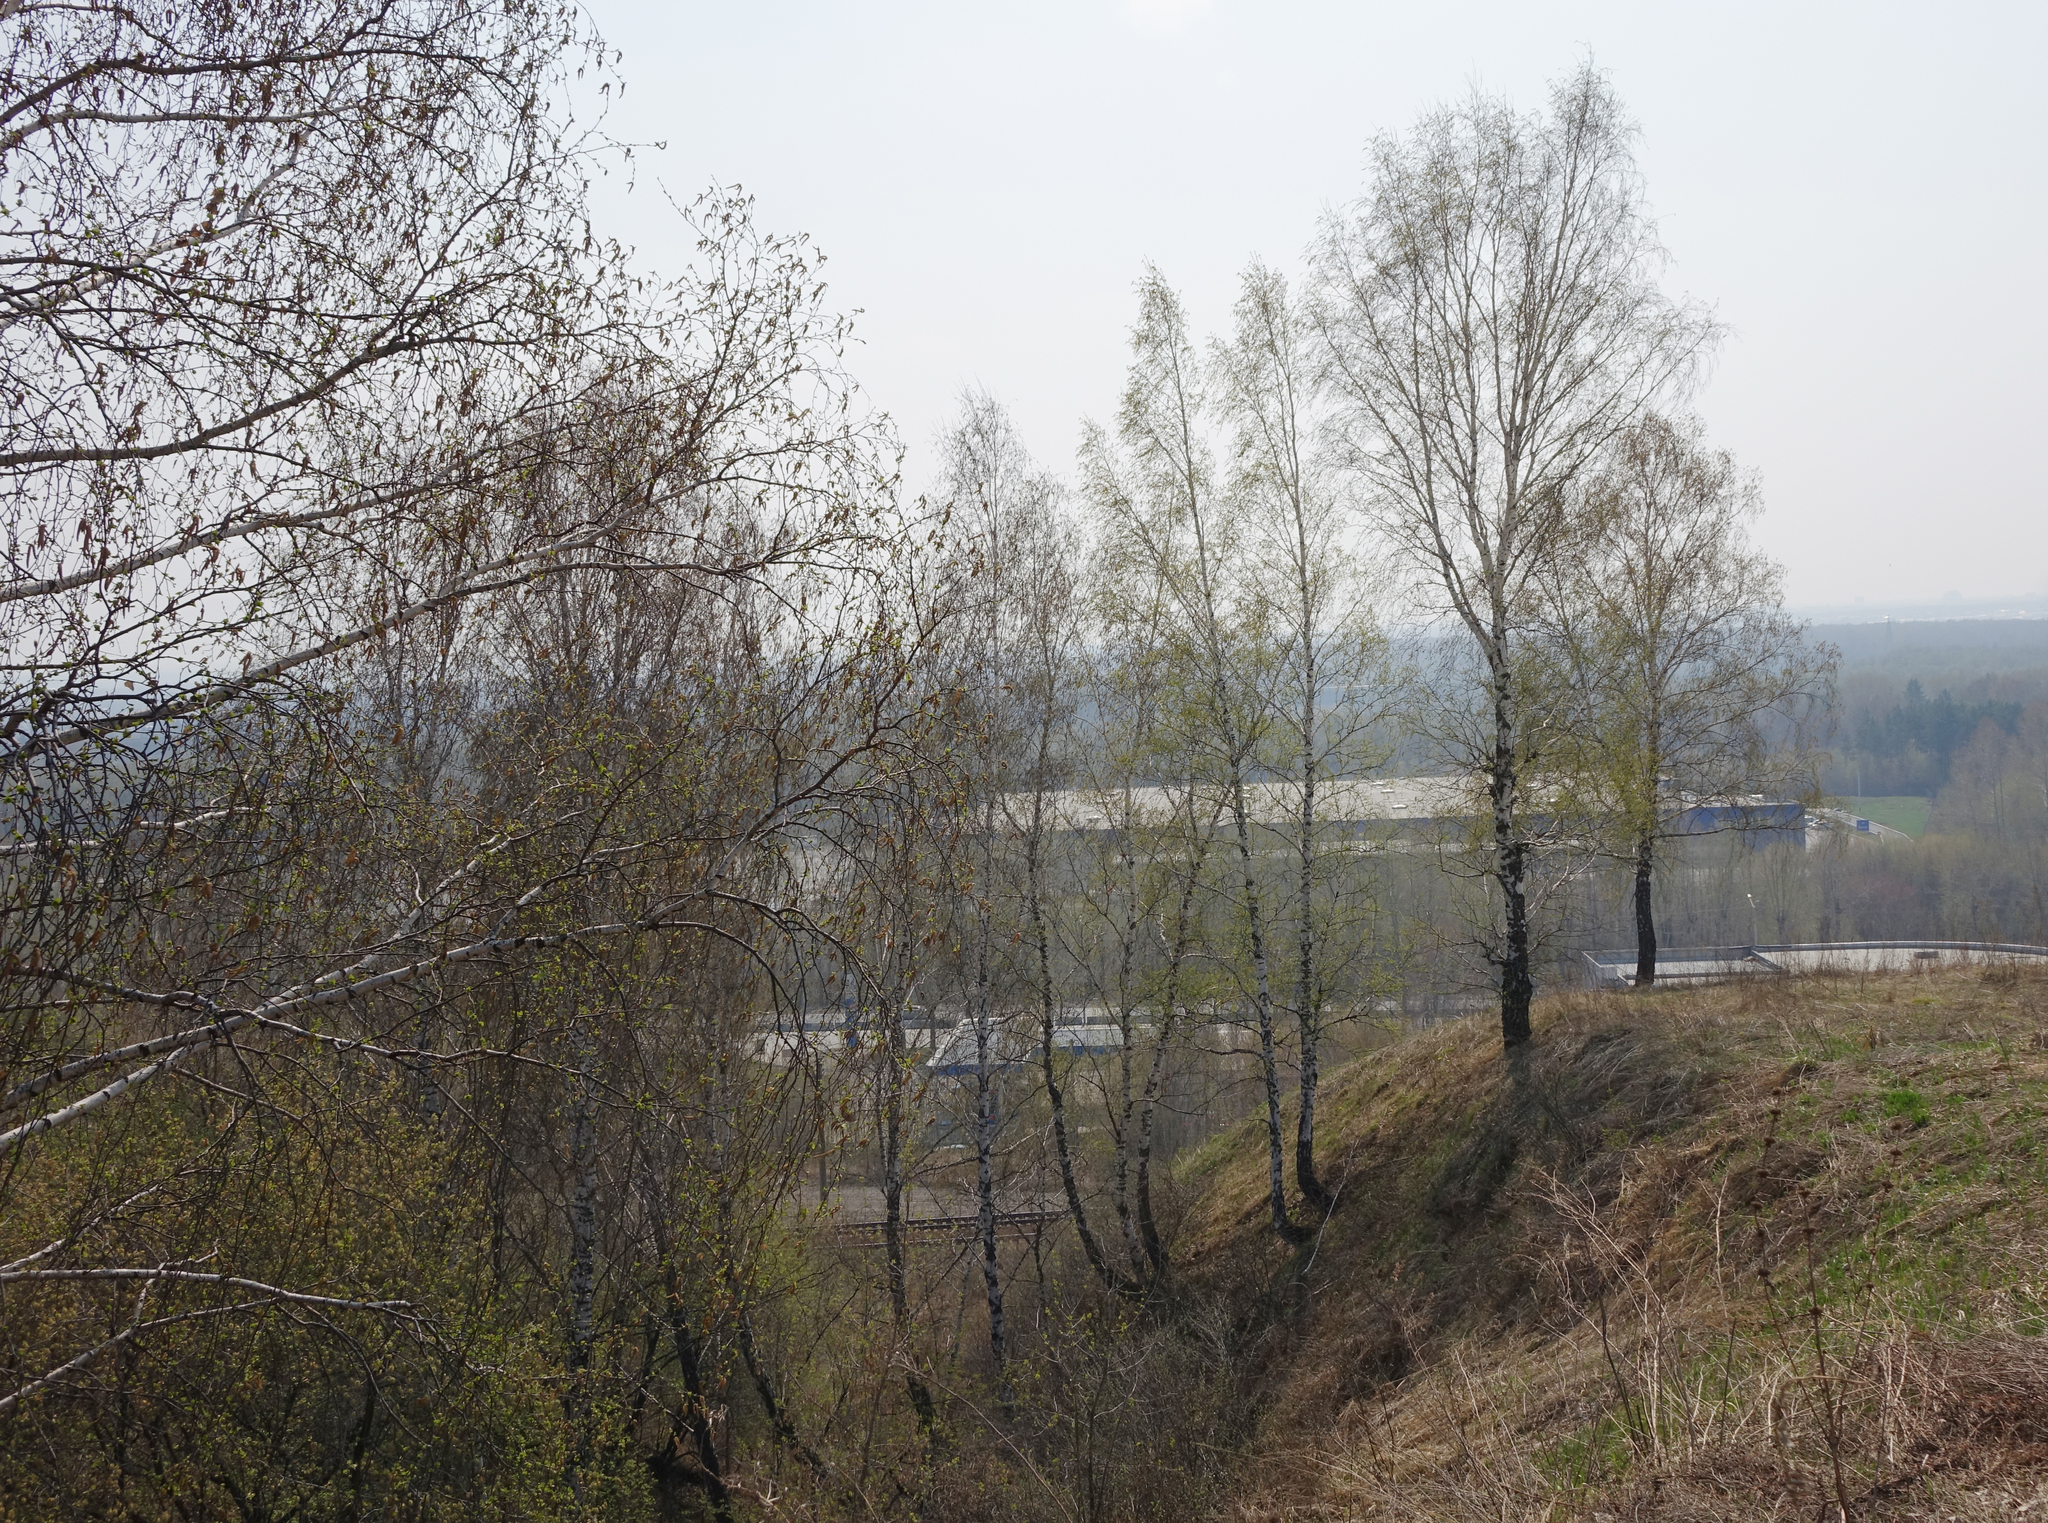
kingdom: Plantae
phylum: Tracheophyta
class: Magnoliopsida
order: Fagales
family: Betulaceae
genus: Betula
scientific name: Betula pendula
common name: Silver birch
